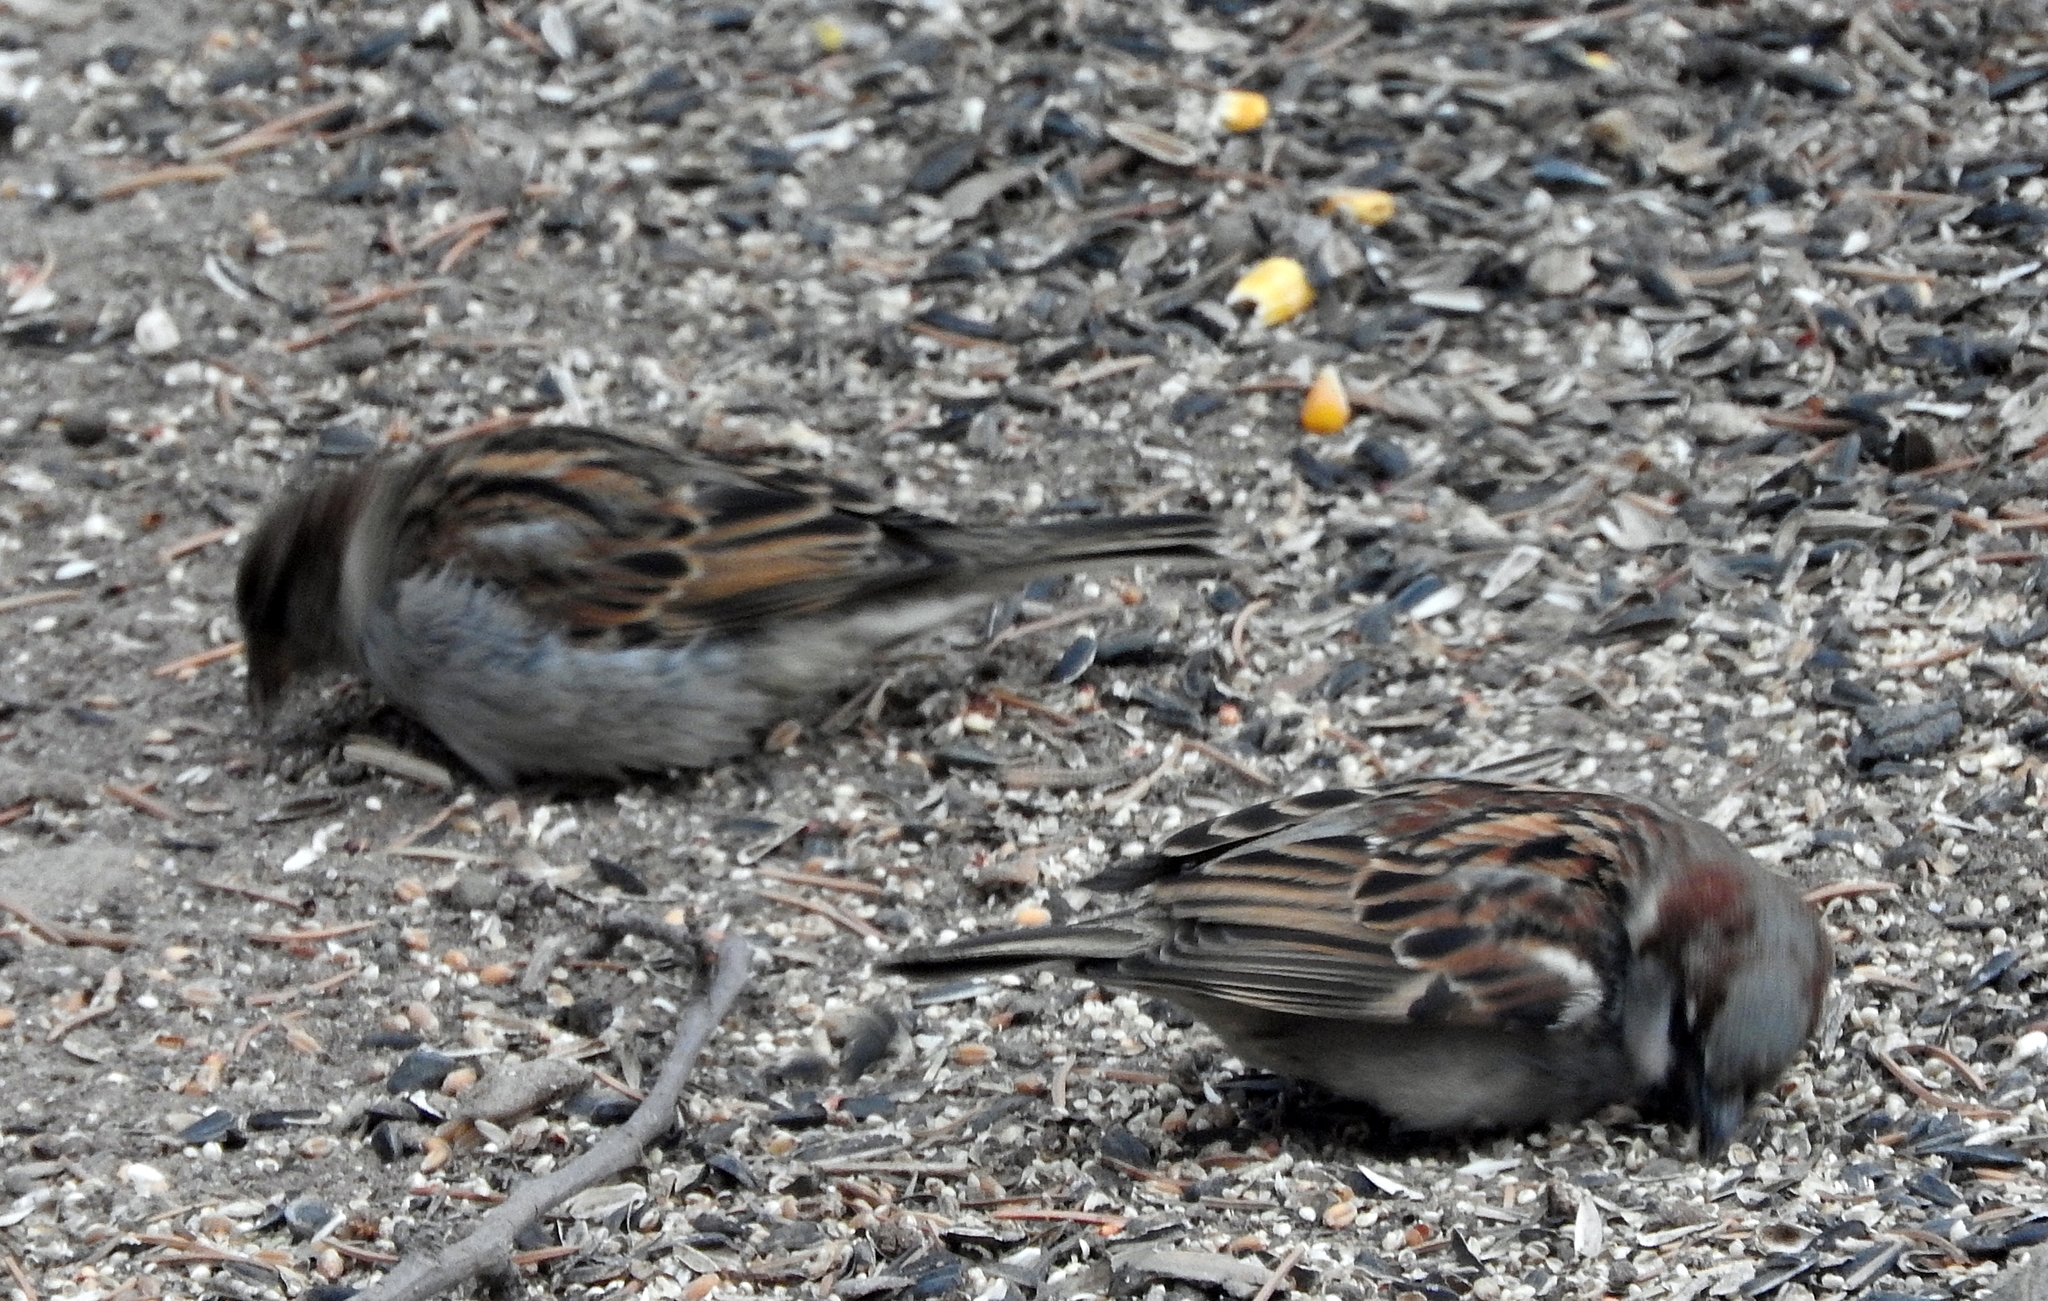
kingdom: Animalia
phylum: Chordata
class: Aves
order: Passeriformes
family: Passeridae
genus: Passer
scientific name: Passer domesticus
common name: House sparrow
